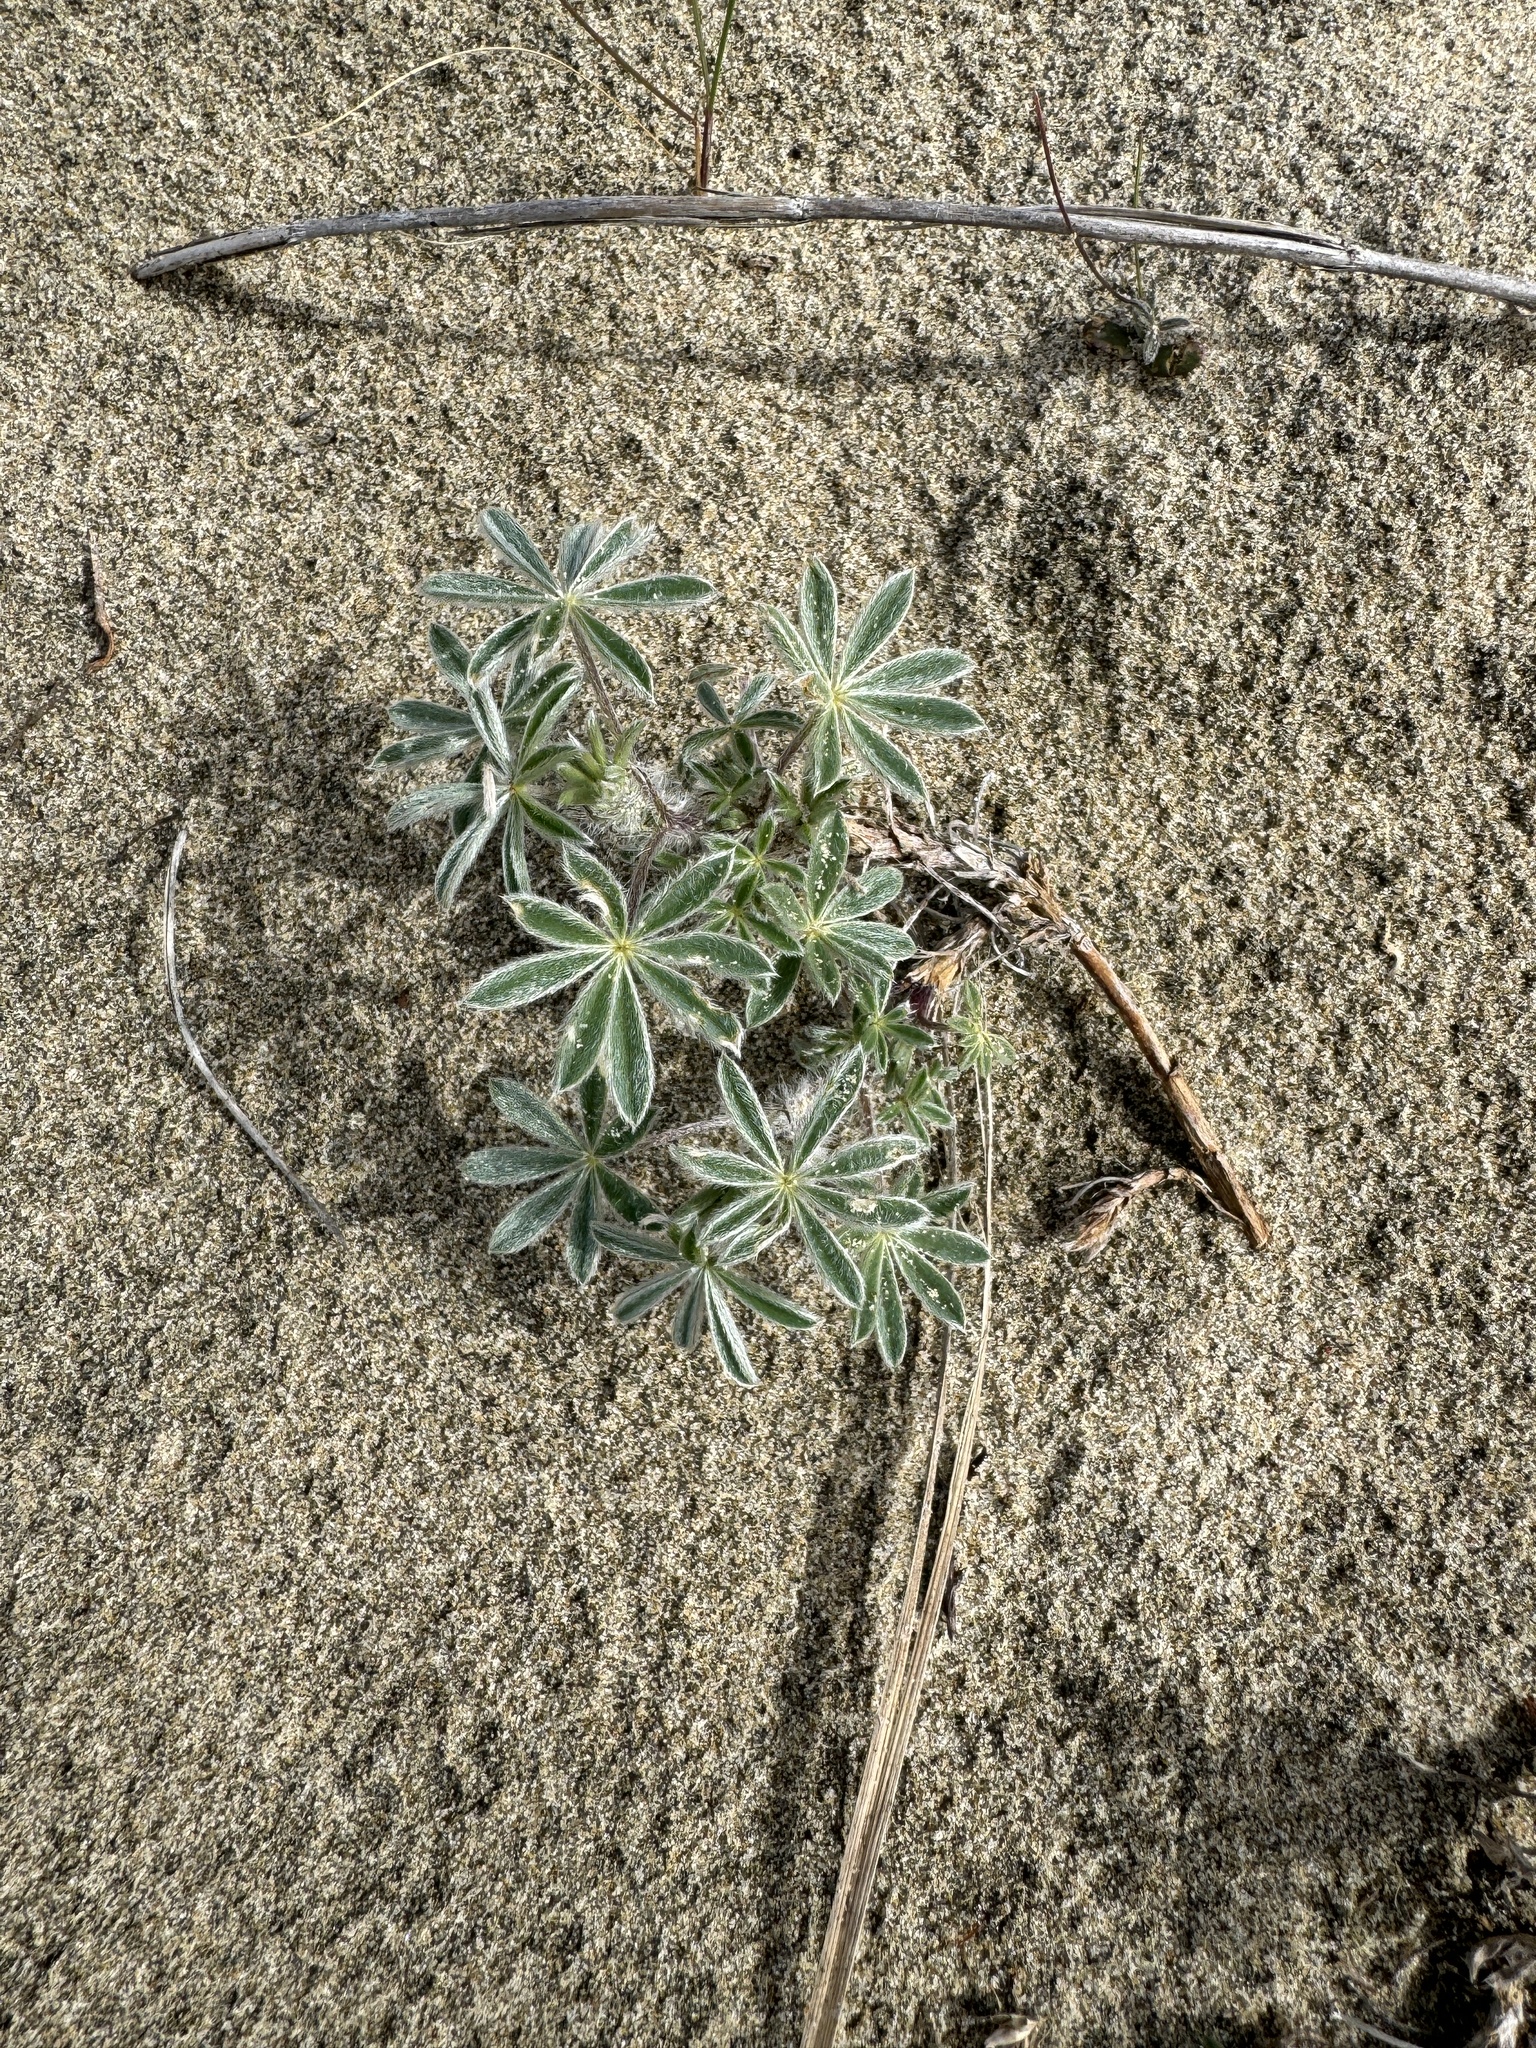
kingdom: Plantae
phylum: Tracheophyta
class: Magnoliopsida
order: Fabales
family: Fabaceae
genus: Lupinus
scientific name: Lupinus littoralis
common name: Seashore lupine
